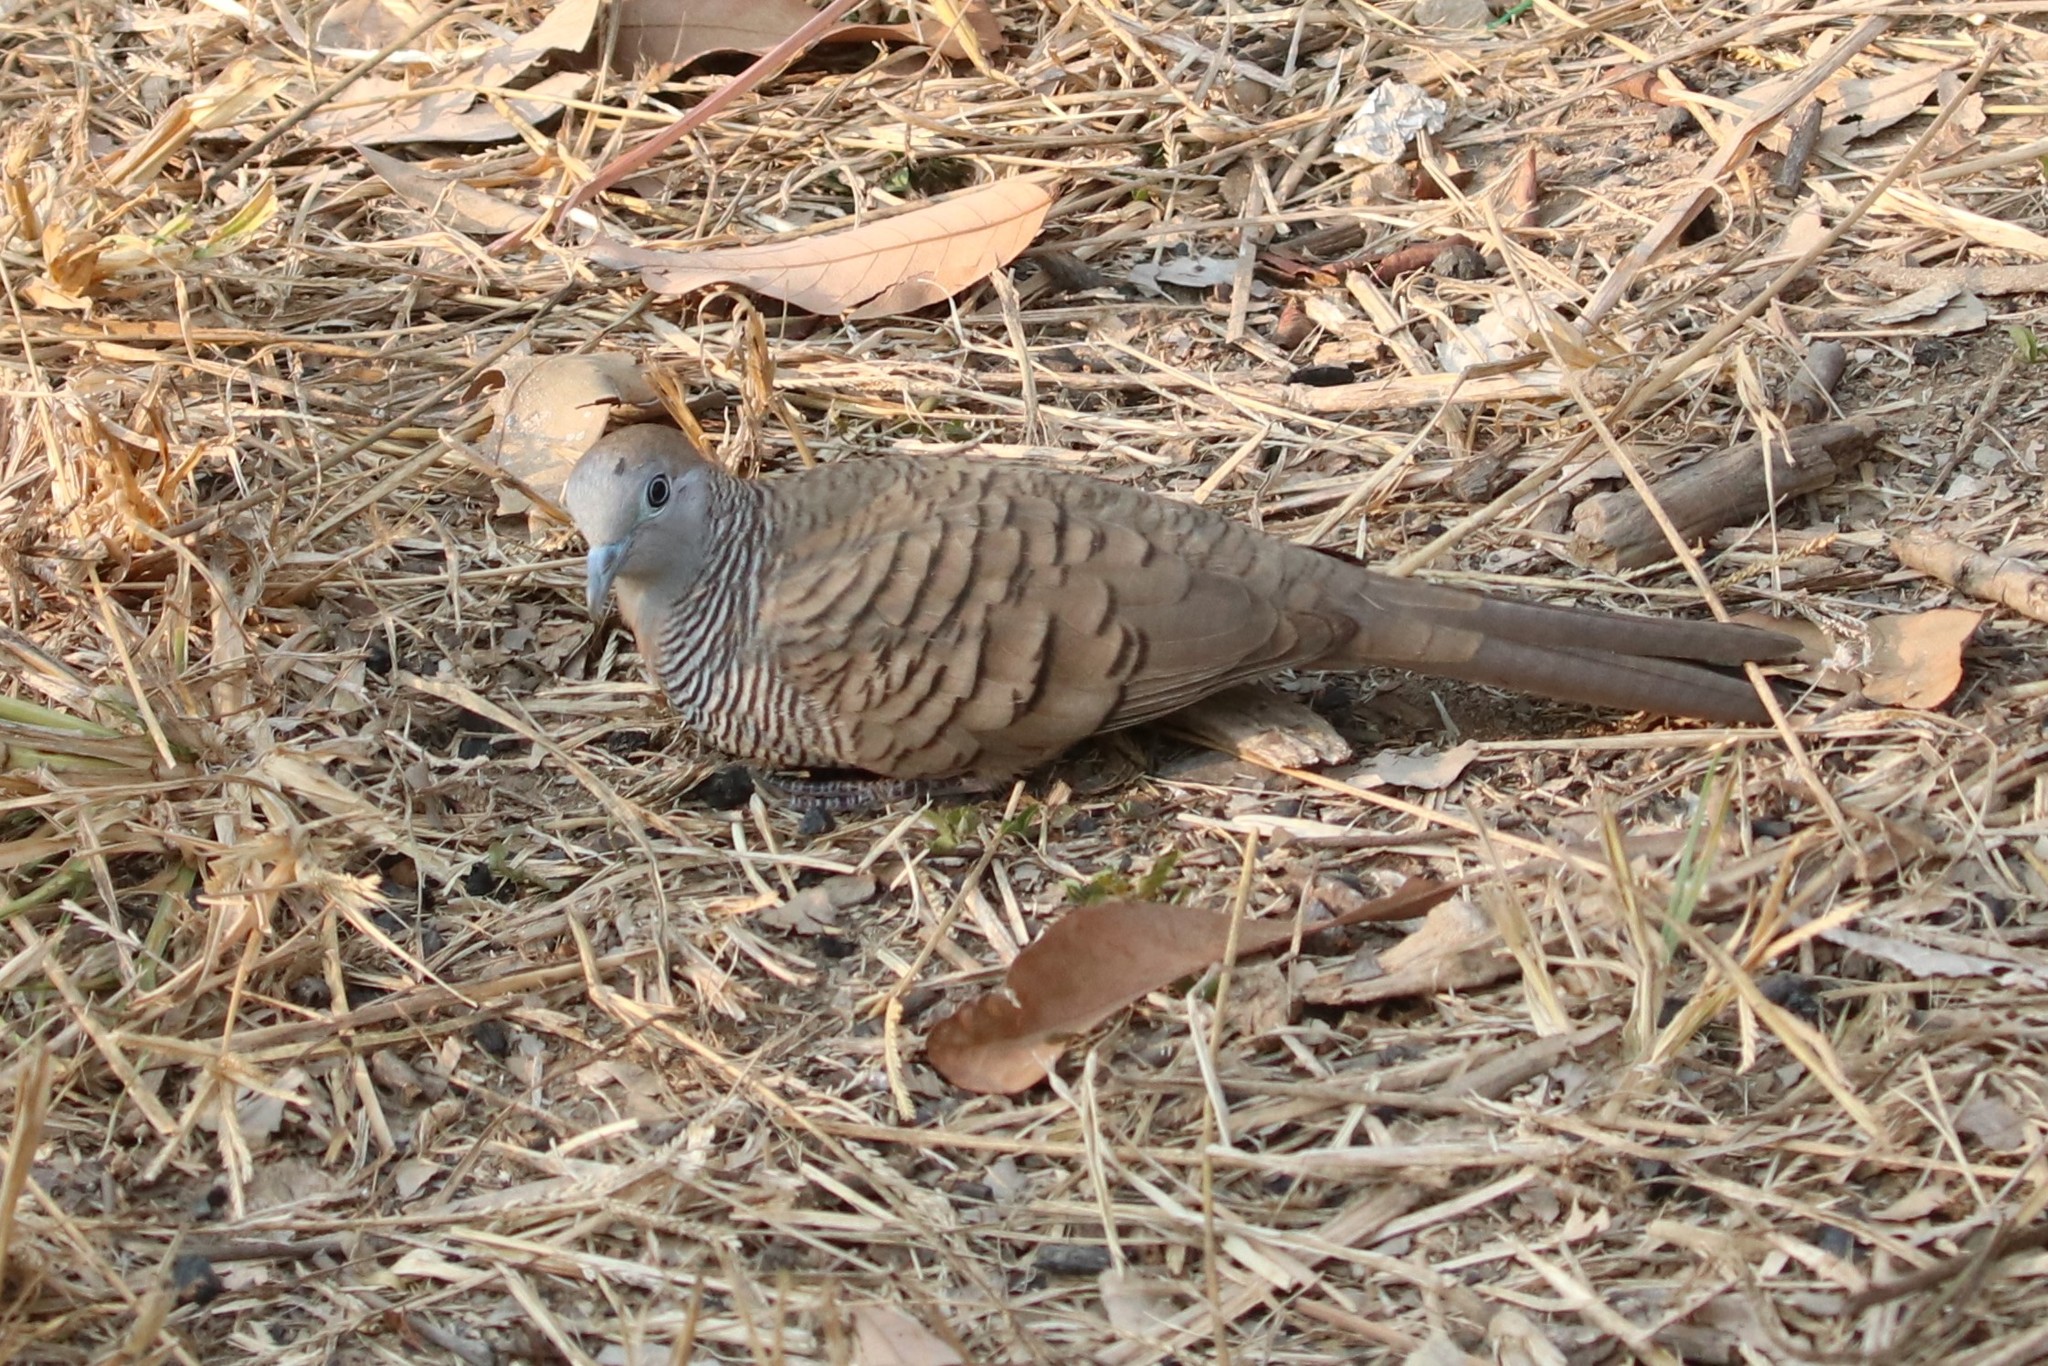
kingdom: Animalia
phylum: Chordata
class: Aves
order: Columbiformes
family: Columbidae
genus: Geopelia
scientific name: Geopelia striata
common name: Zebra dove
